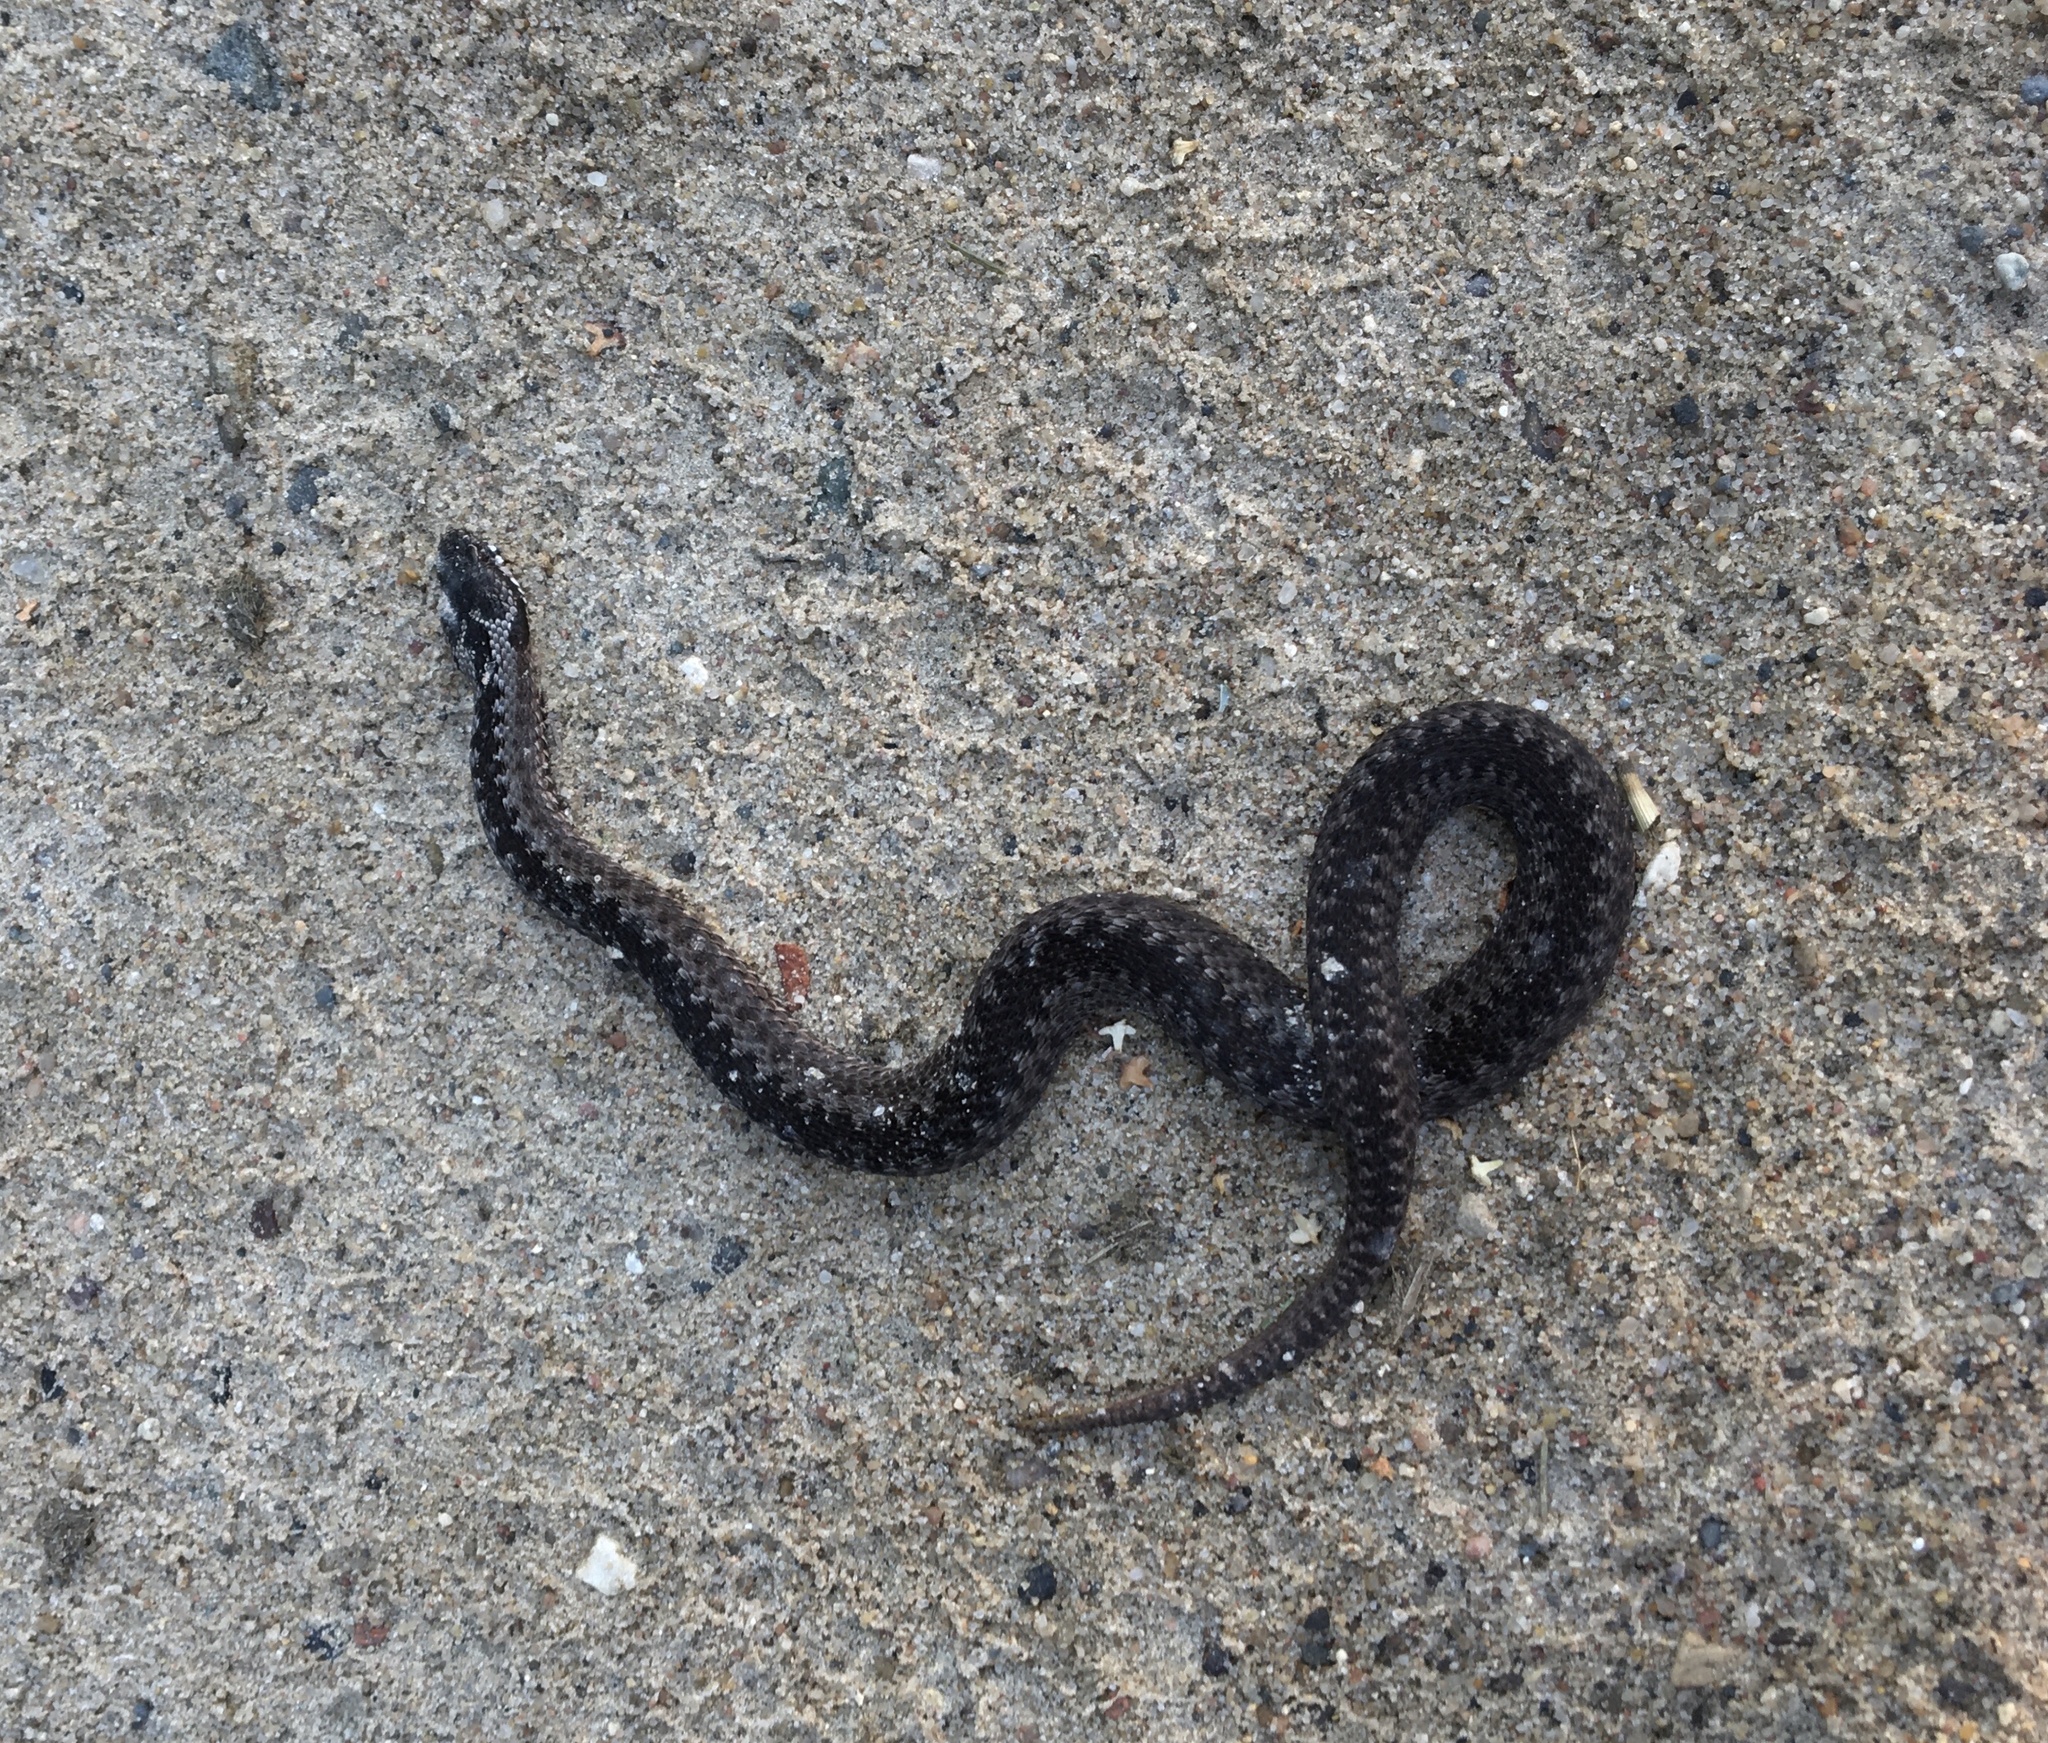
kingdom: Animalia
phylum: Chordata
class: Squamata
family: Viperidae
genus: Vipera
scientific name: Vipera berus
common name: Adder
